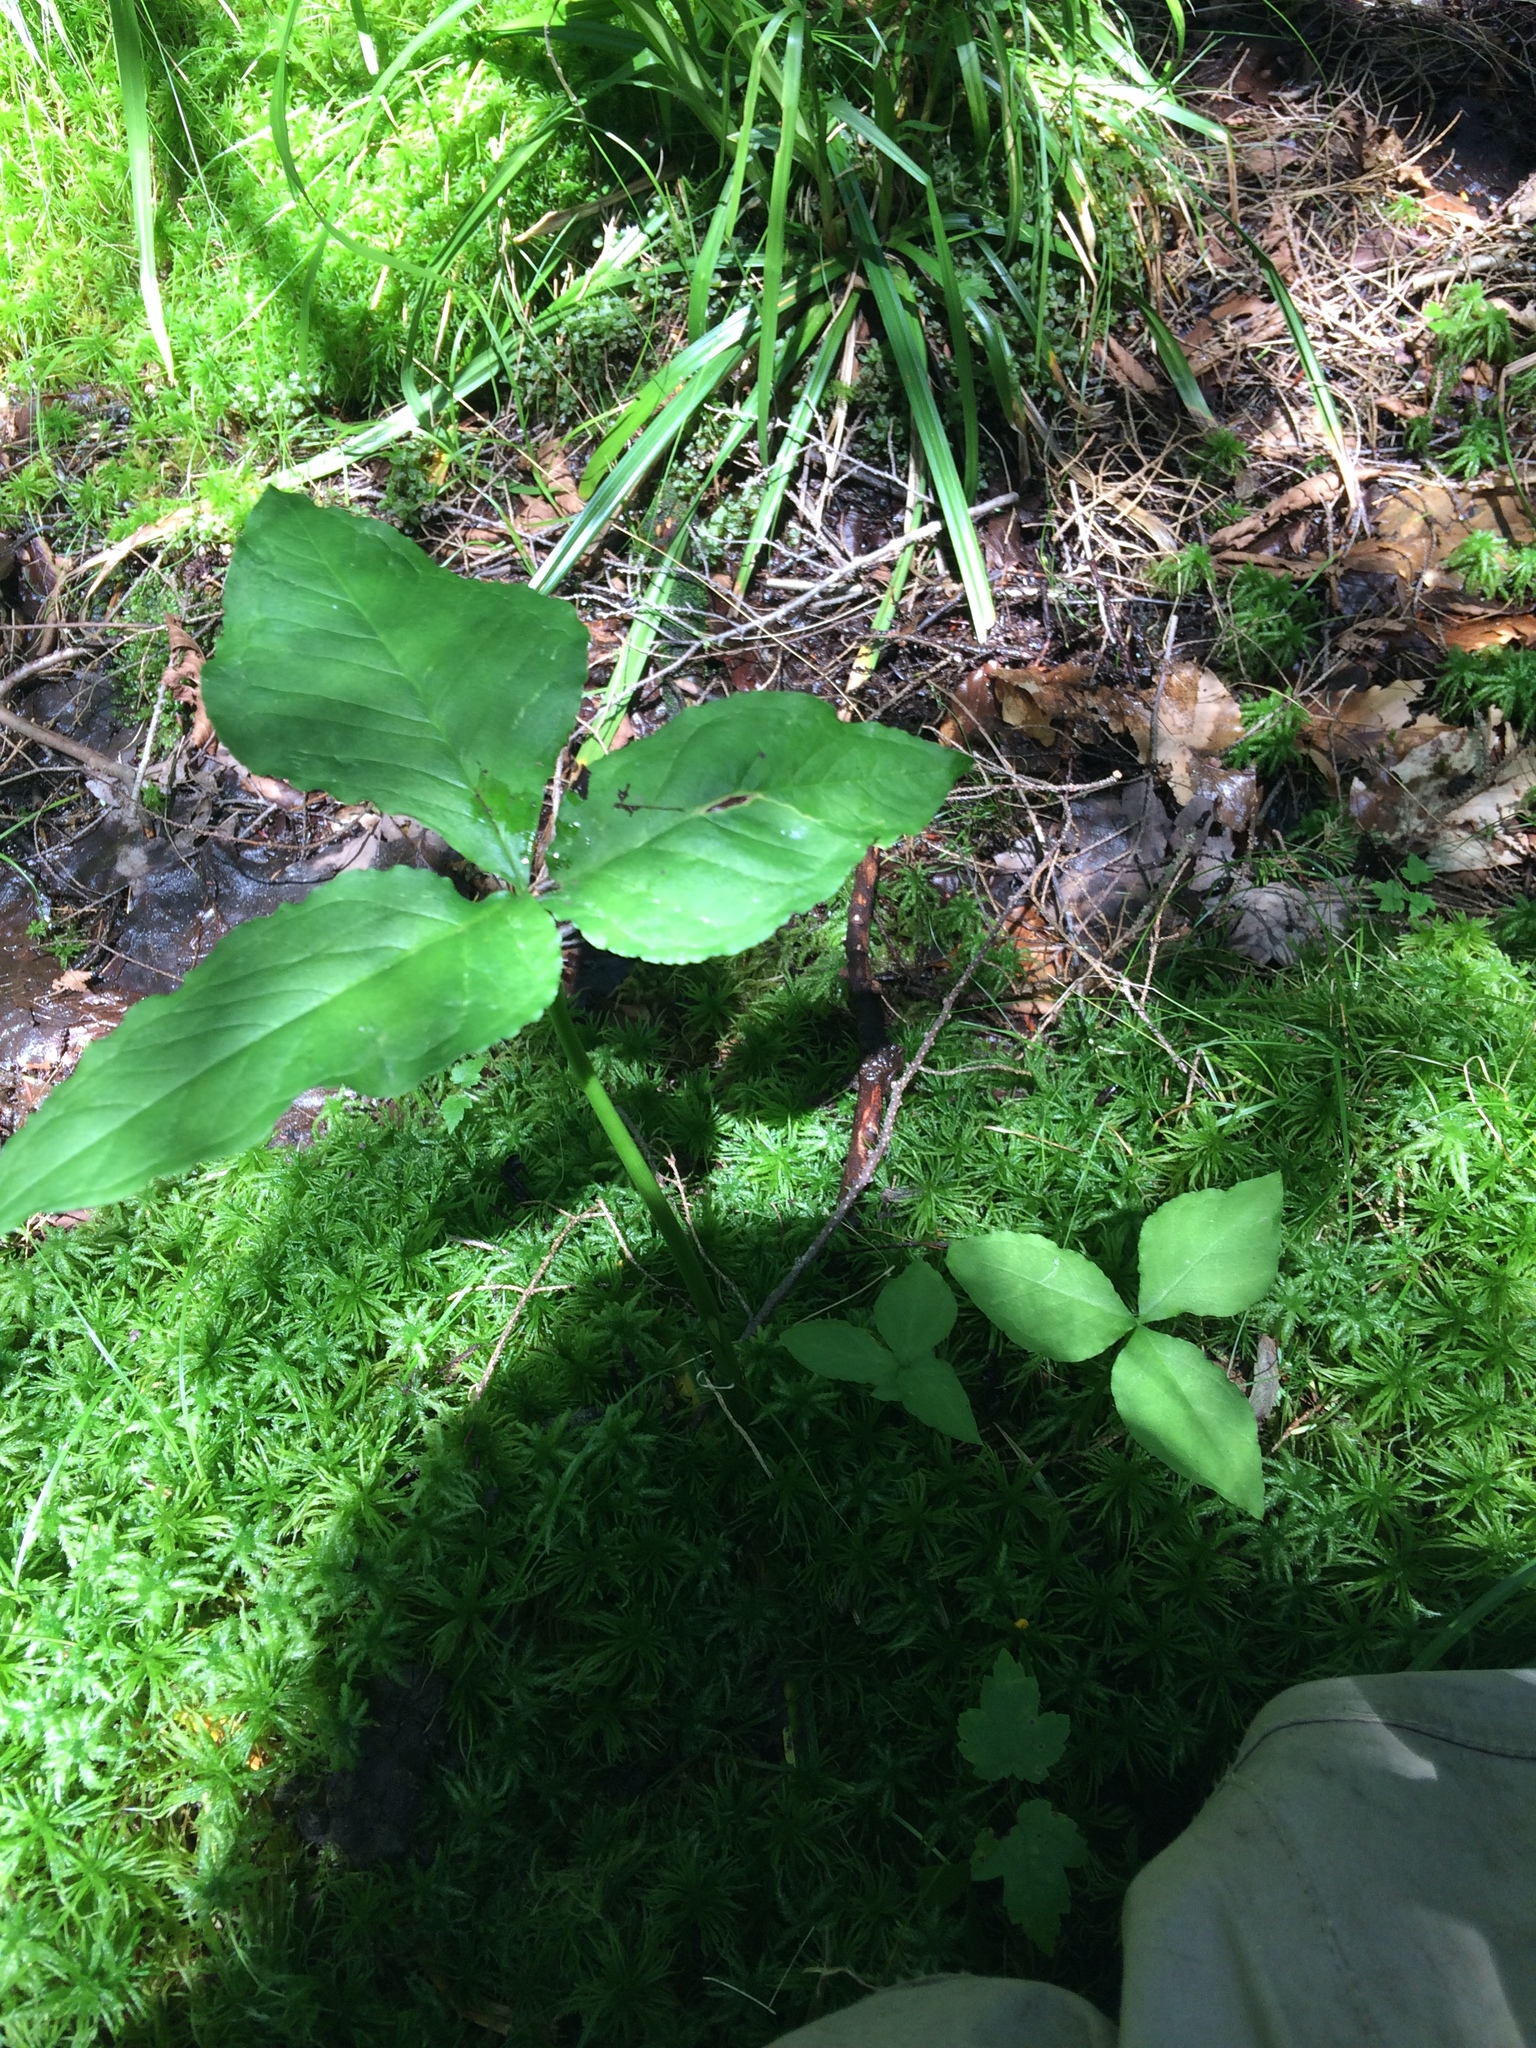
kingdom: Plantae
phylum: Tracheophyta
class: Liliopsida
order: Alismatales
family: Araceae
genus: Arisaema
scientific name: Arisaema triphyllum
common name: Jack-in-the-pulpit
